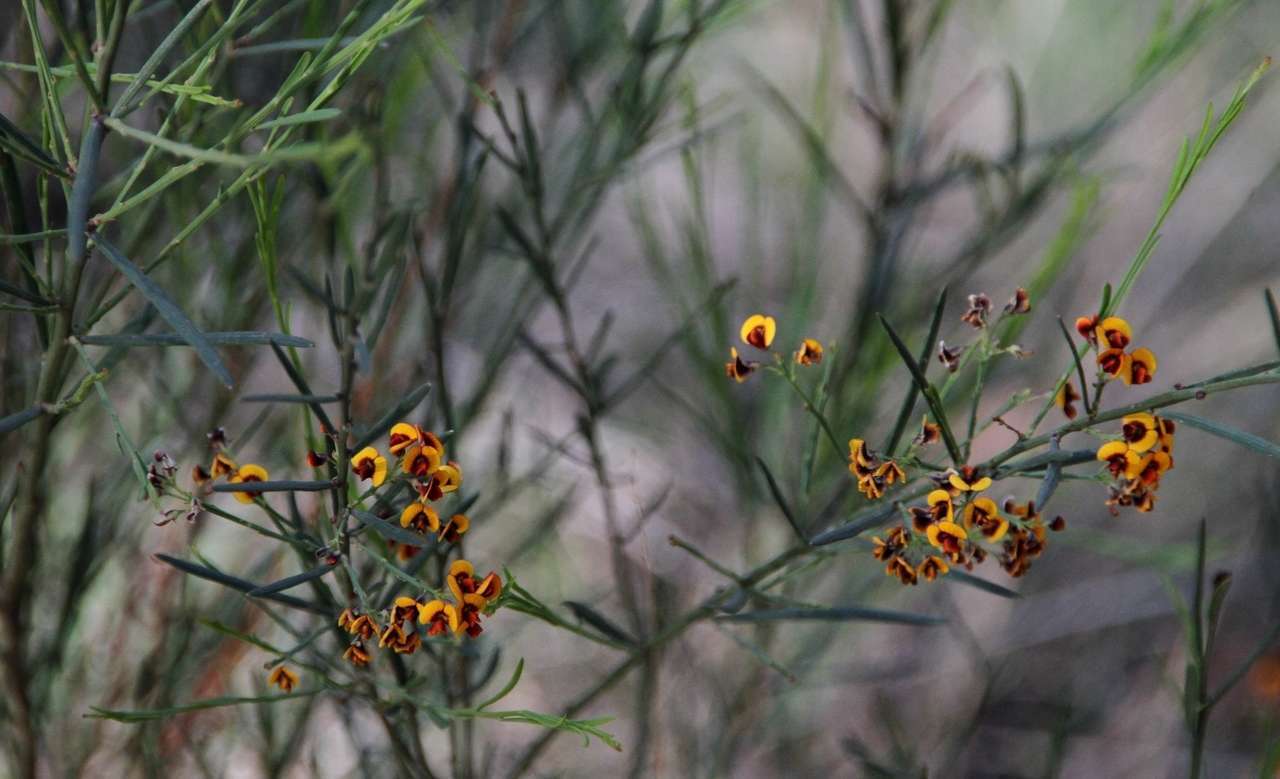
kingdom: Plantae
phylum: Tracheophyta
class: Magnoliopsida
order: Fabales
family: Fabaceae
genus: Daviesia
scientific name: Daviesia leptophylla
